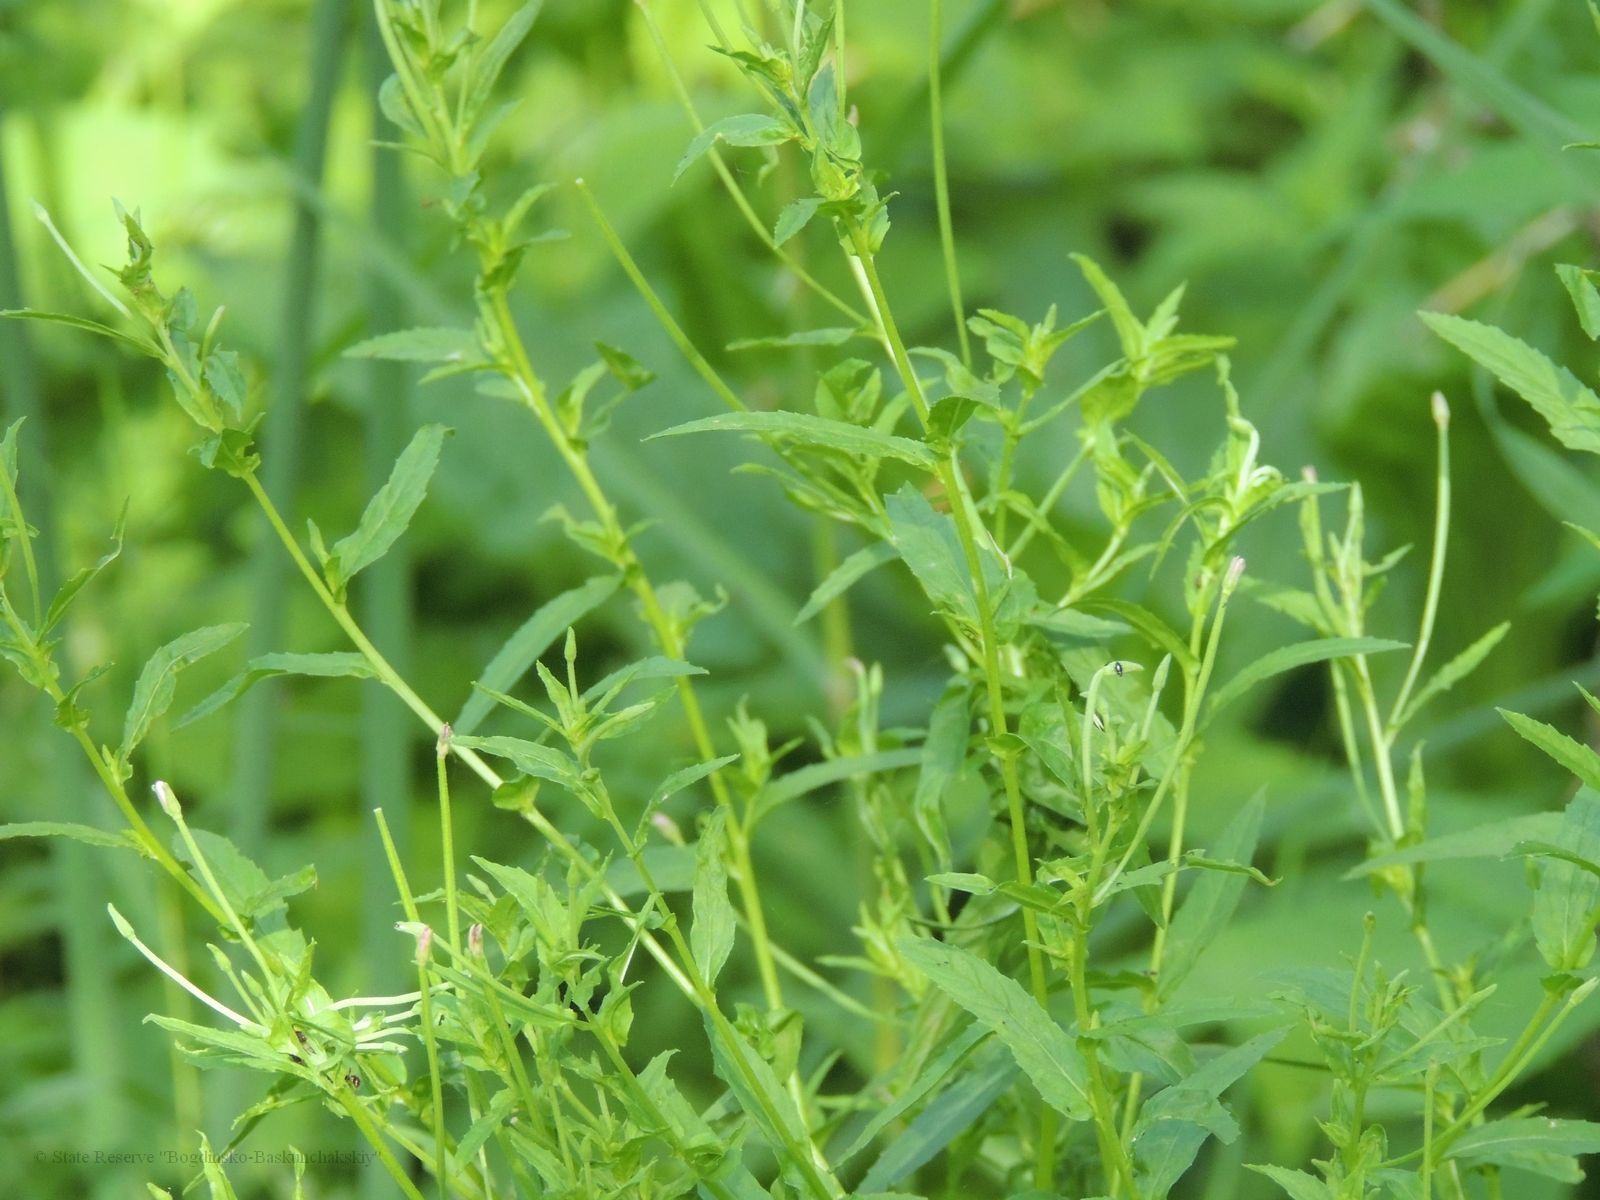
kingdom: Plantae
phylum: Tracheophyta
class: Magnoliopsida
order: Myrtales
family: Onagraceae
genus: Epilobium
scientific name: Epilobium hirsutum
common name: Great willowherb
